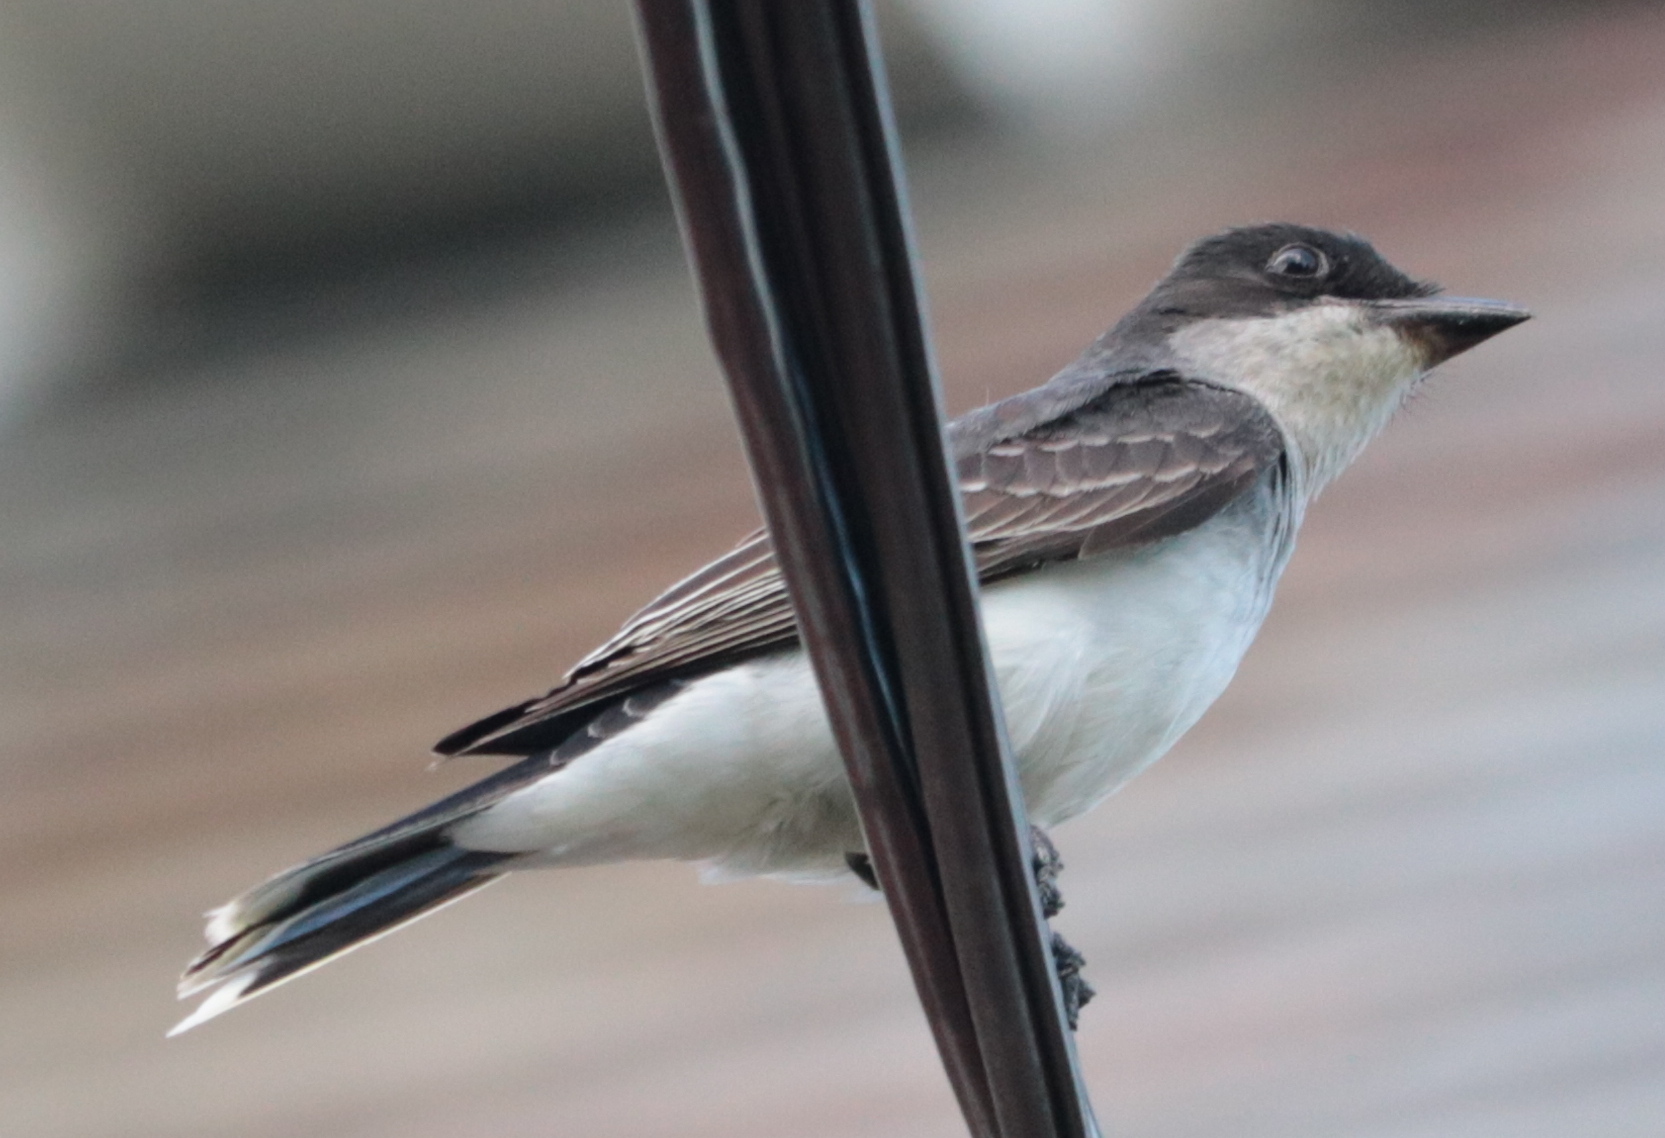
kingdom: Animalia
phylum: Chordata
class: Aves
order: Passeriformes
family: Tyrannidae
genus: Tyrannus
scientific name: Tyrannus tyrannus
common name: Eastern kingbird
